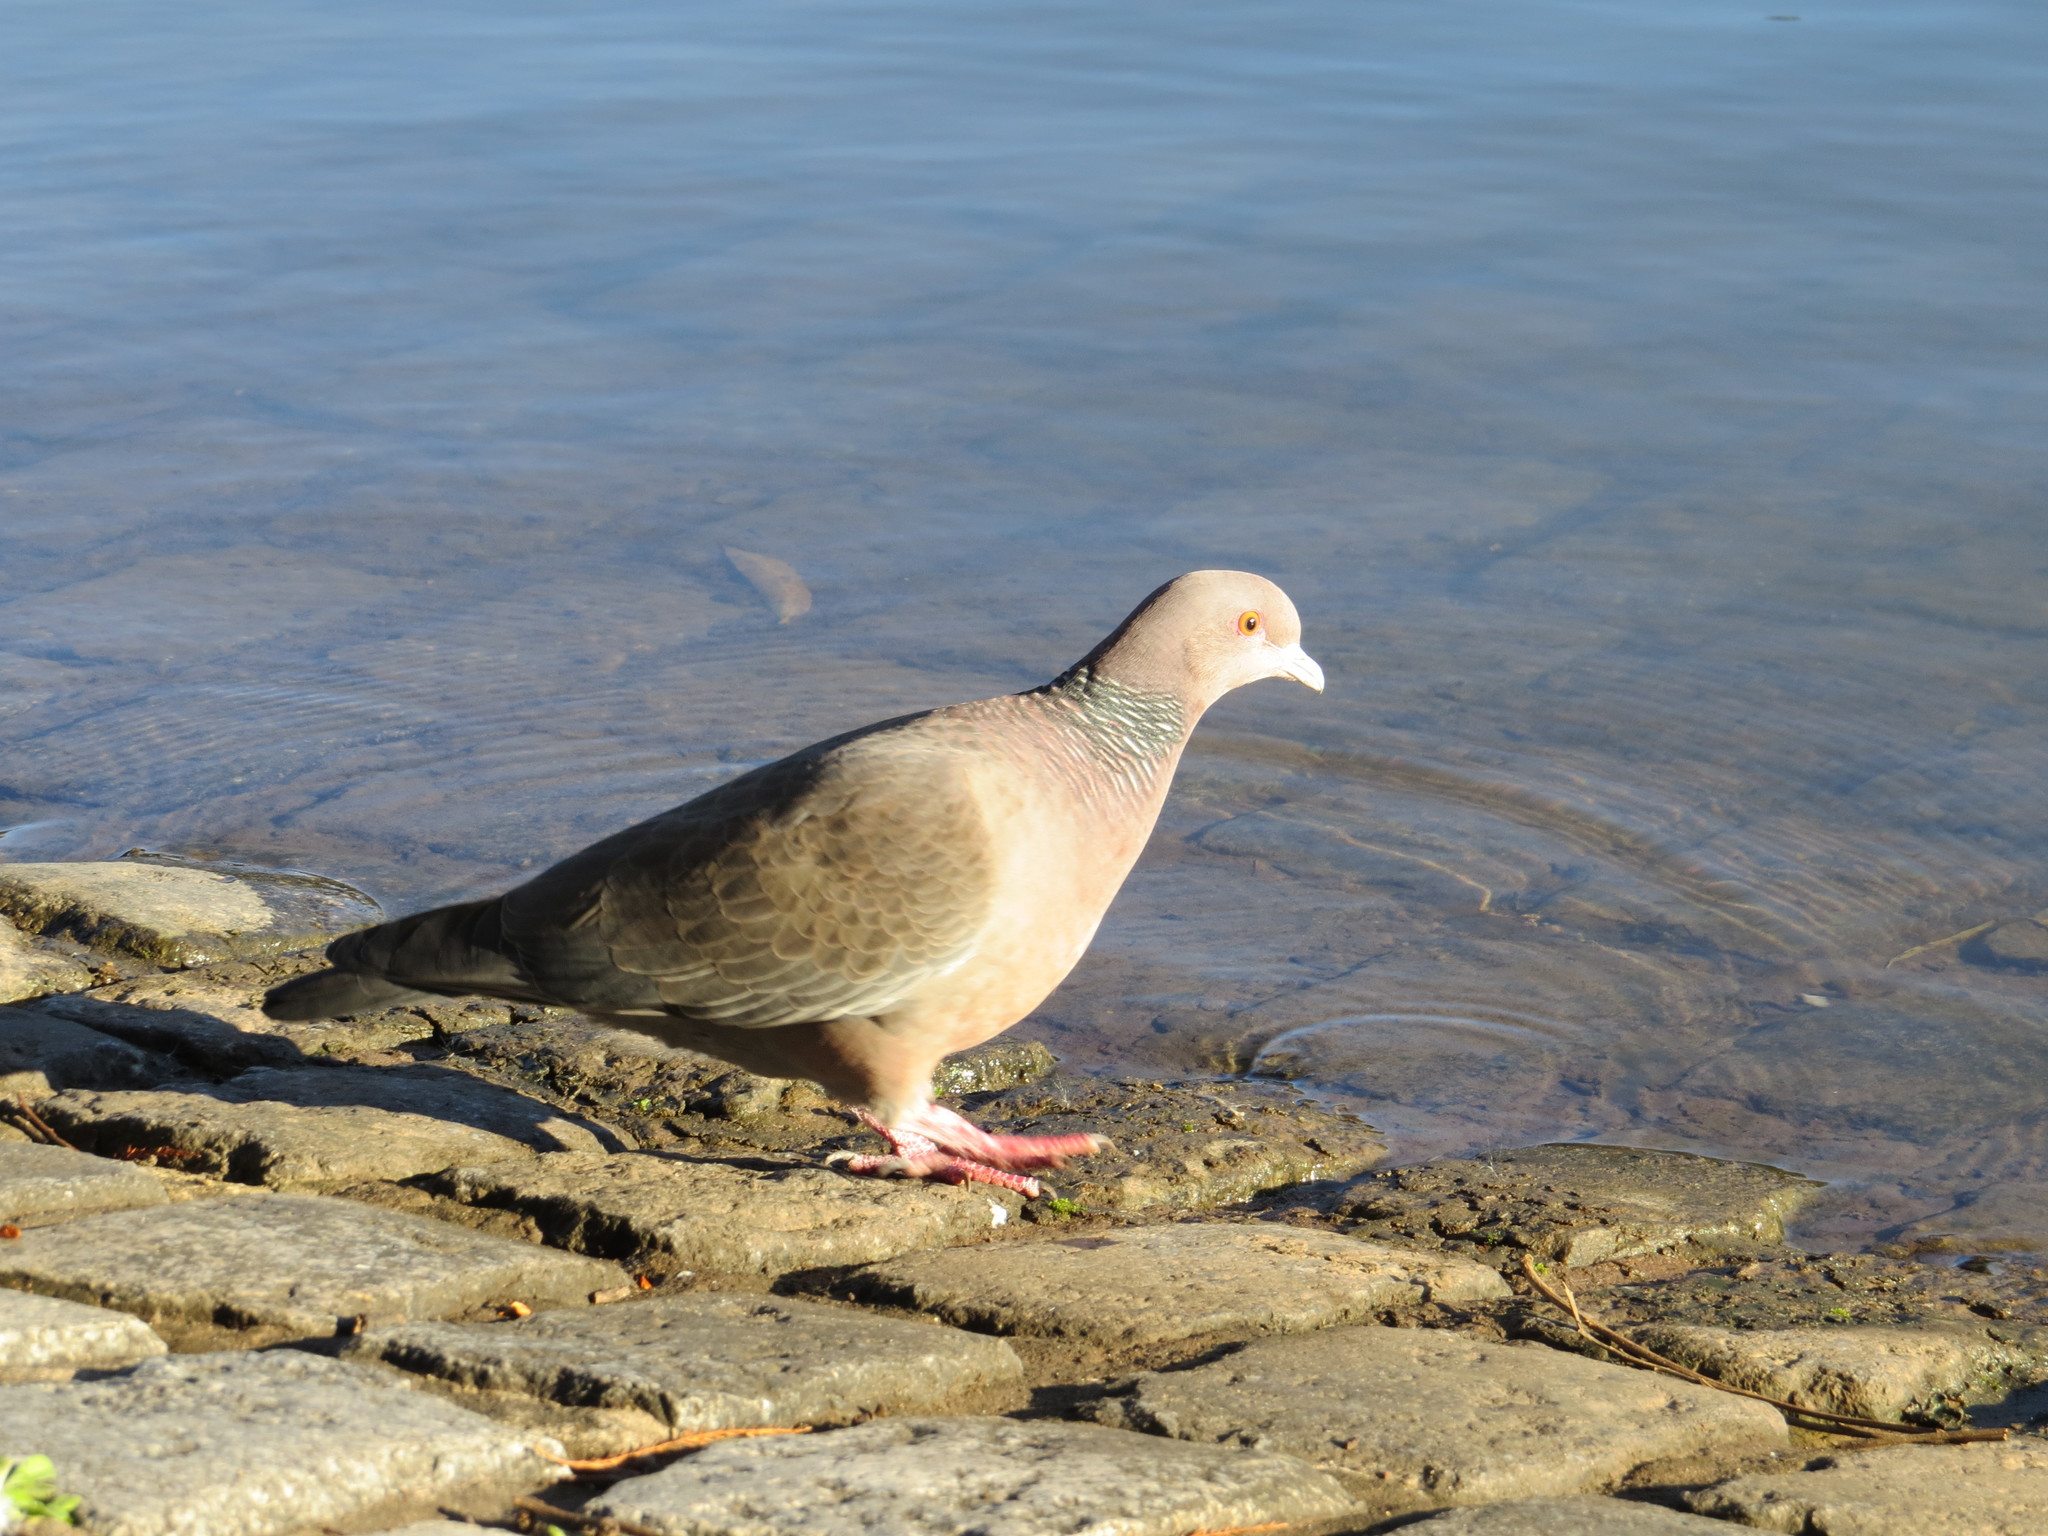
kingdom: Animalia
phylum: Chordata
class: Aves
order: Columbiformes
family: Columbidae
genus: Patagioenas
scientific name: Patagioenas picazuro
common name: Picazuro pigeon
